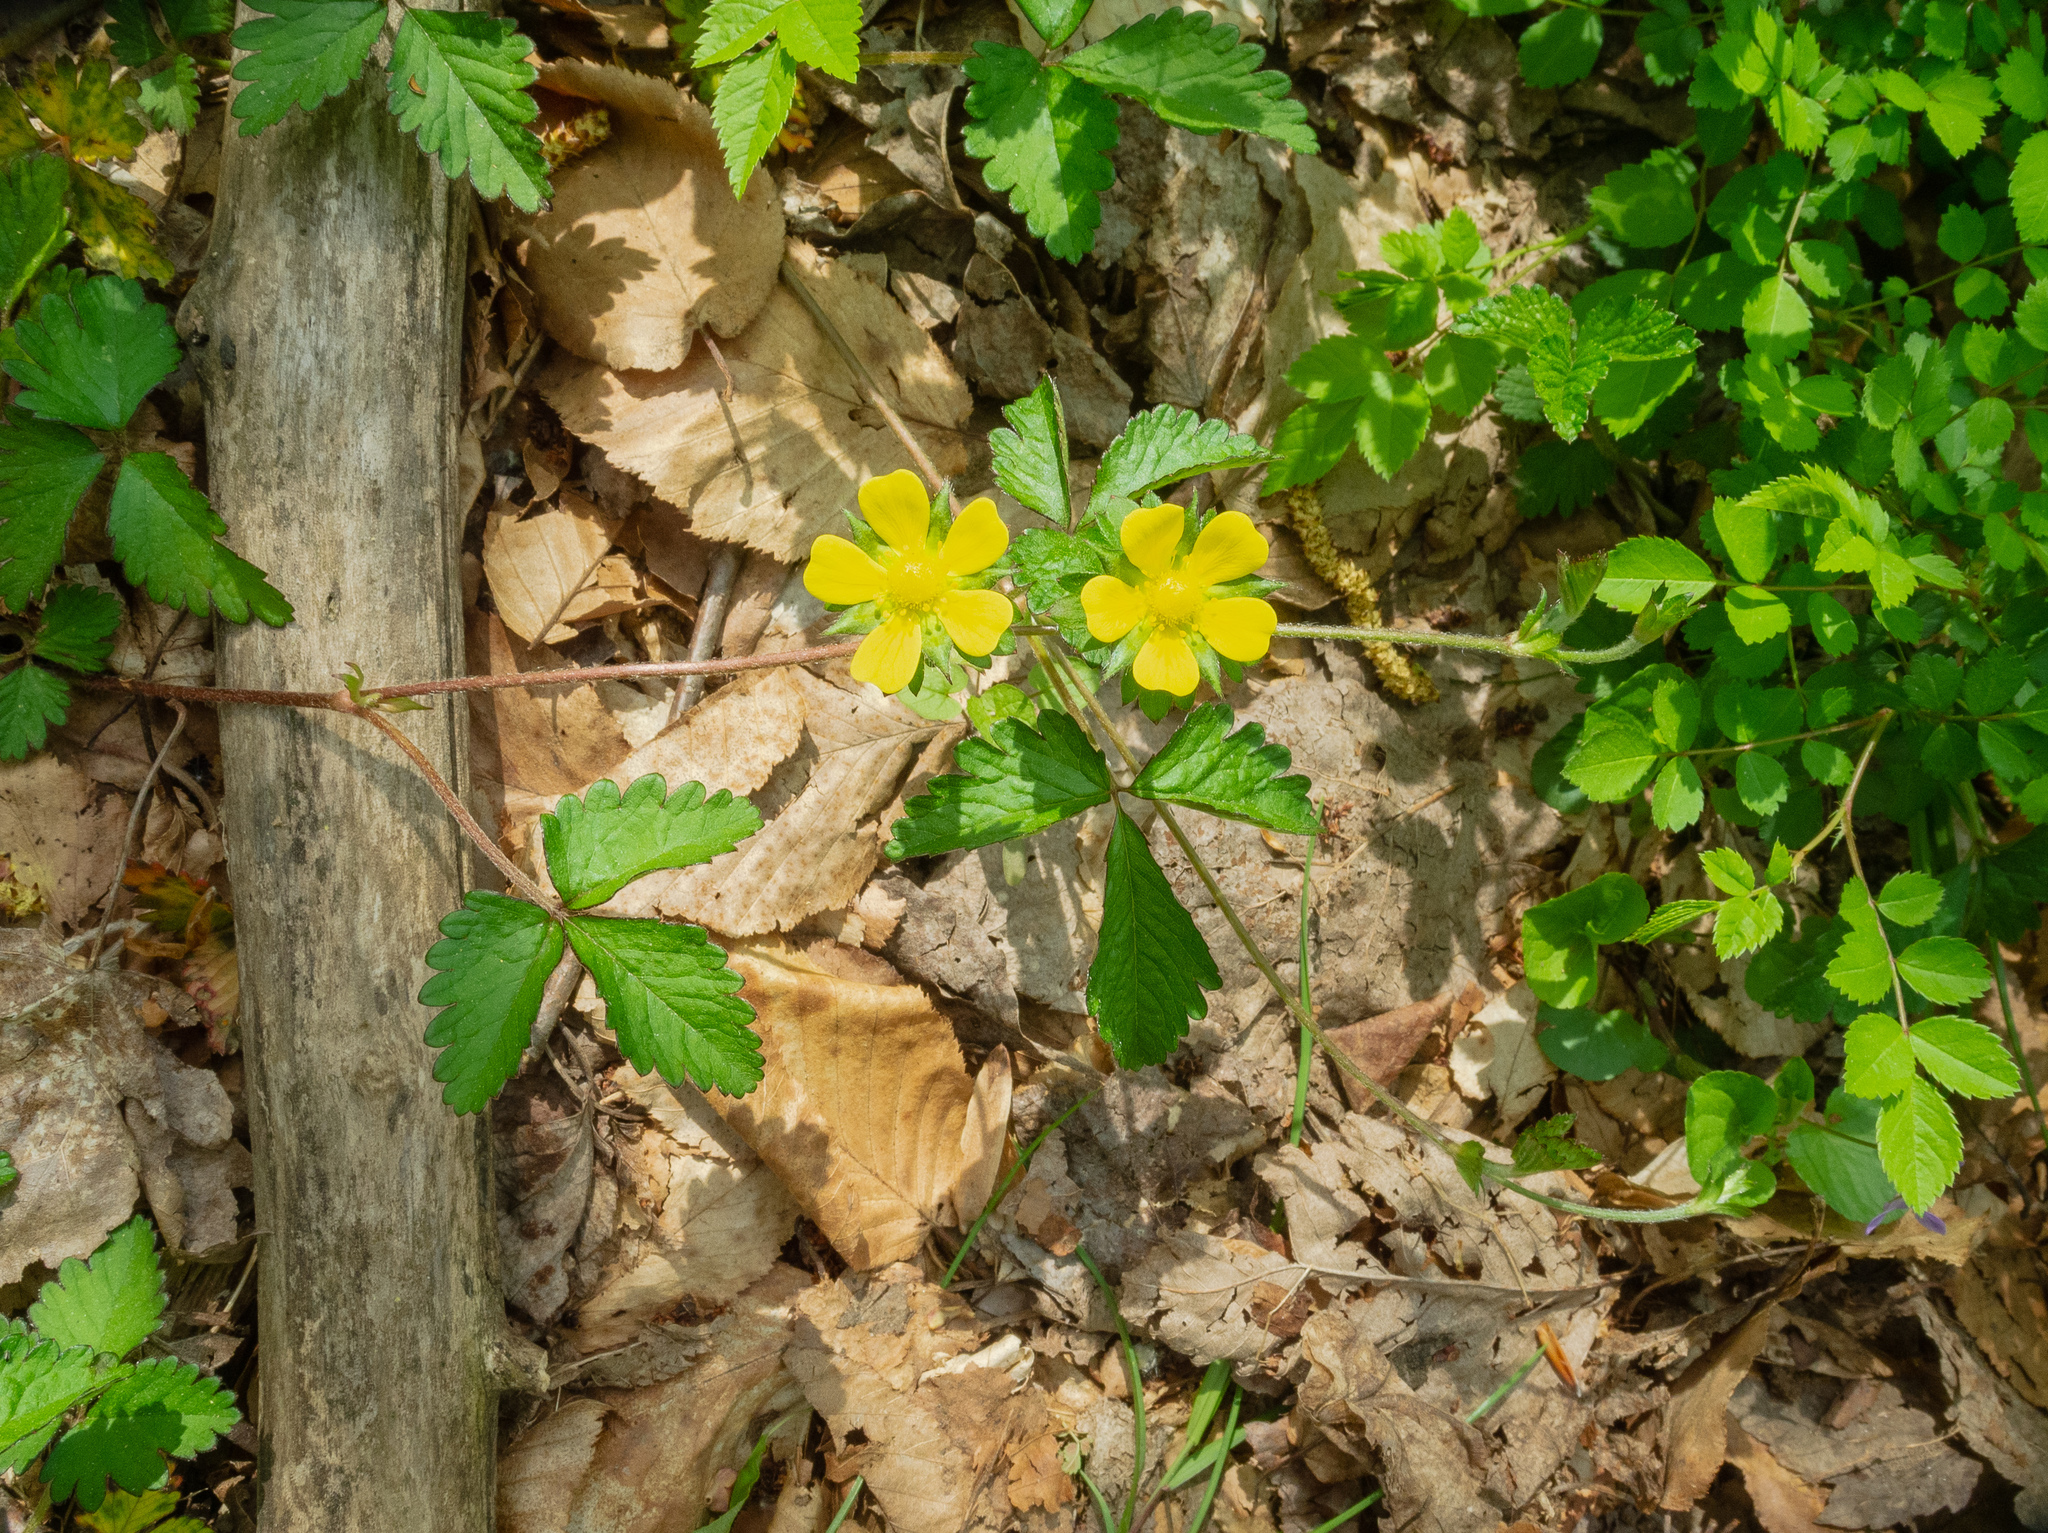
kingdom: Plantae
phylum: Tracheophyta
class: Magnoliopsida
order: Rosales
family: Rosaceae
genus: Potentilla
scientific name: Potentilla indica
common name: Yellow-flowered strawberry
